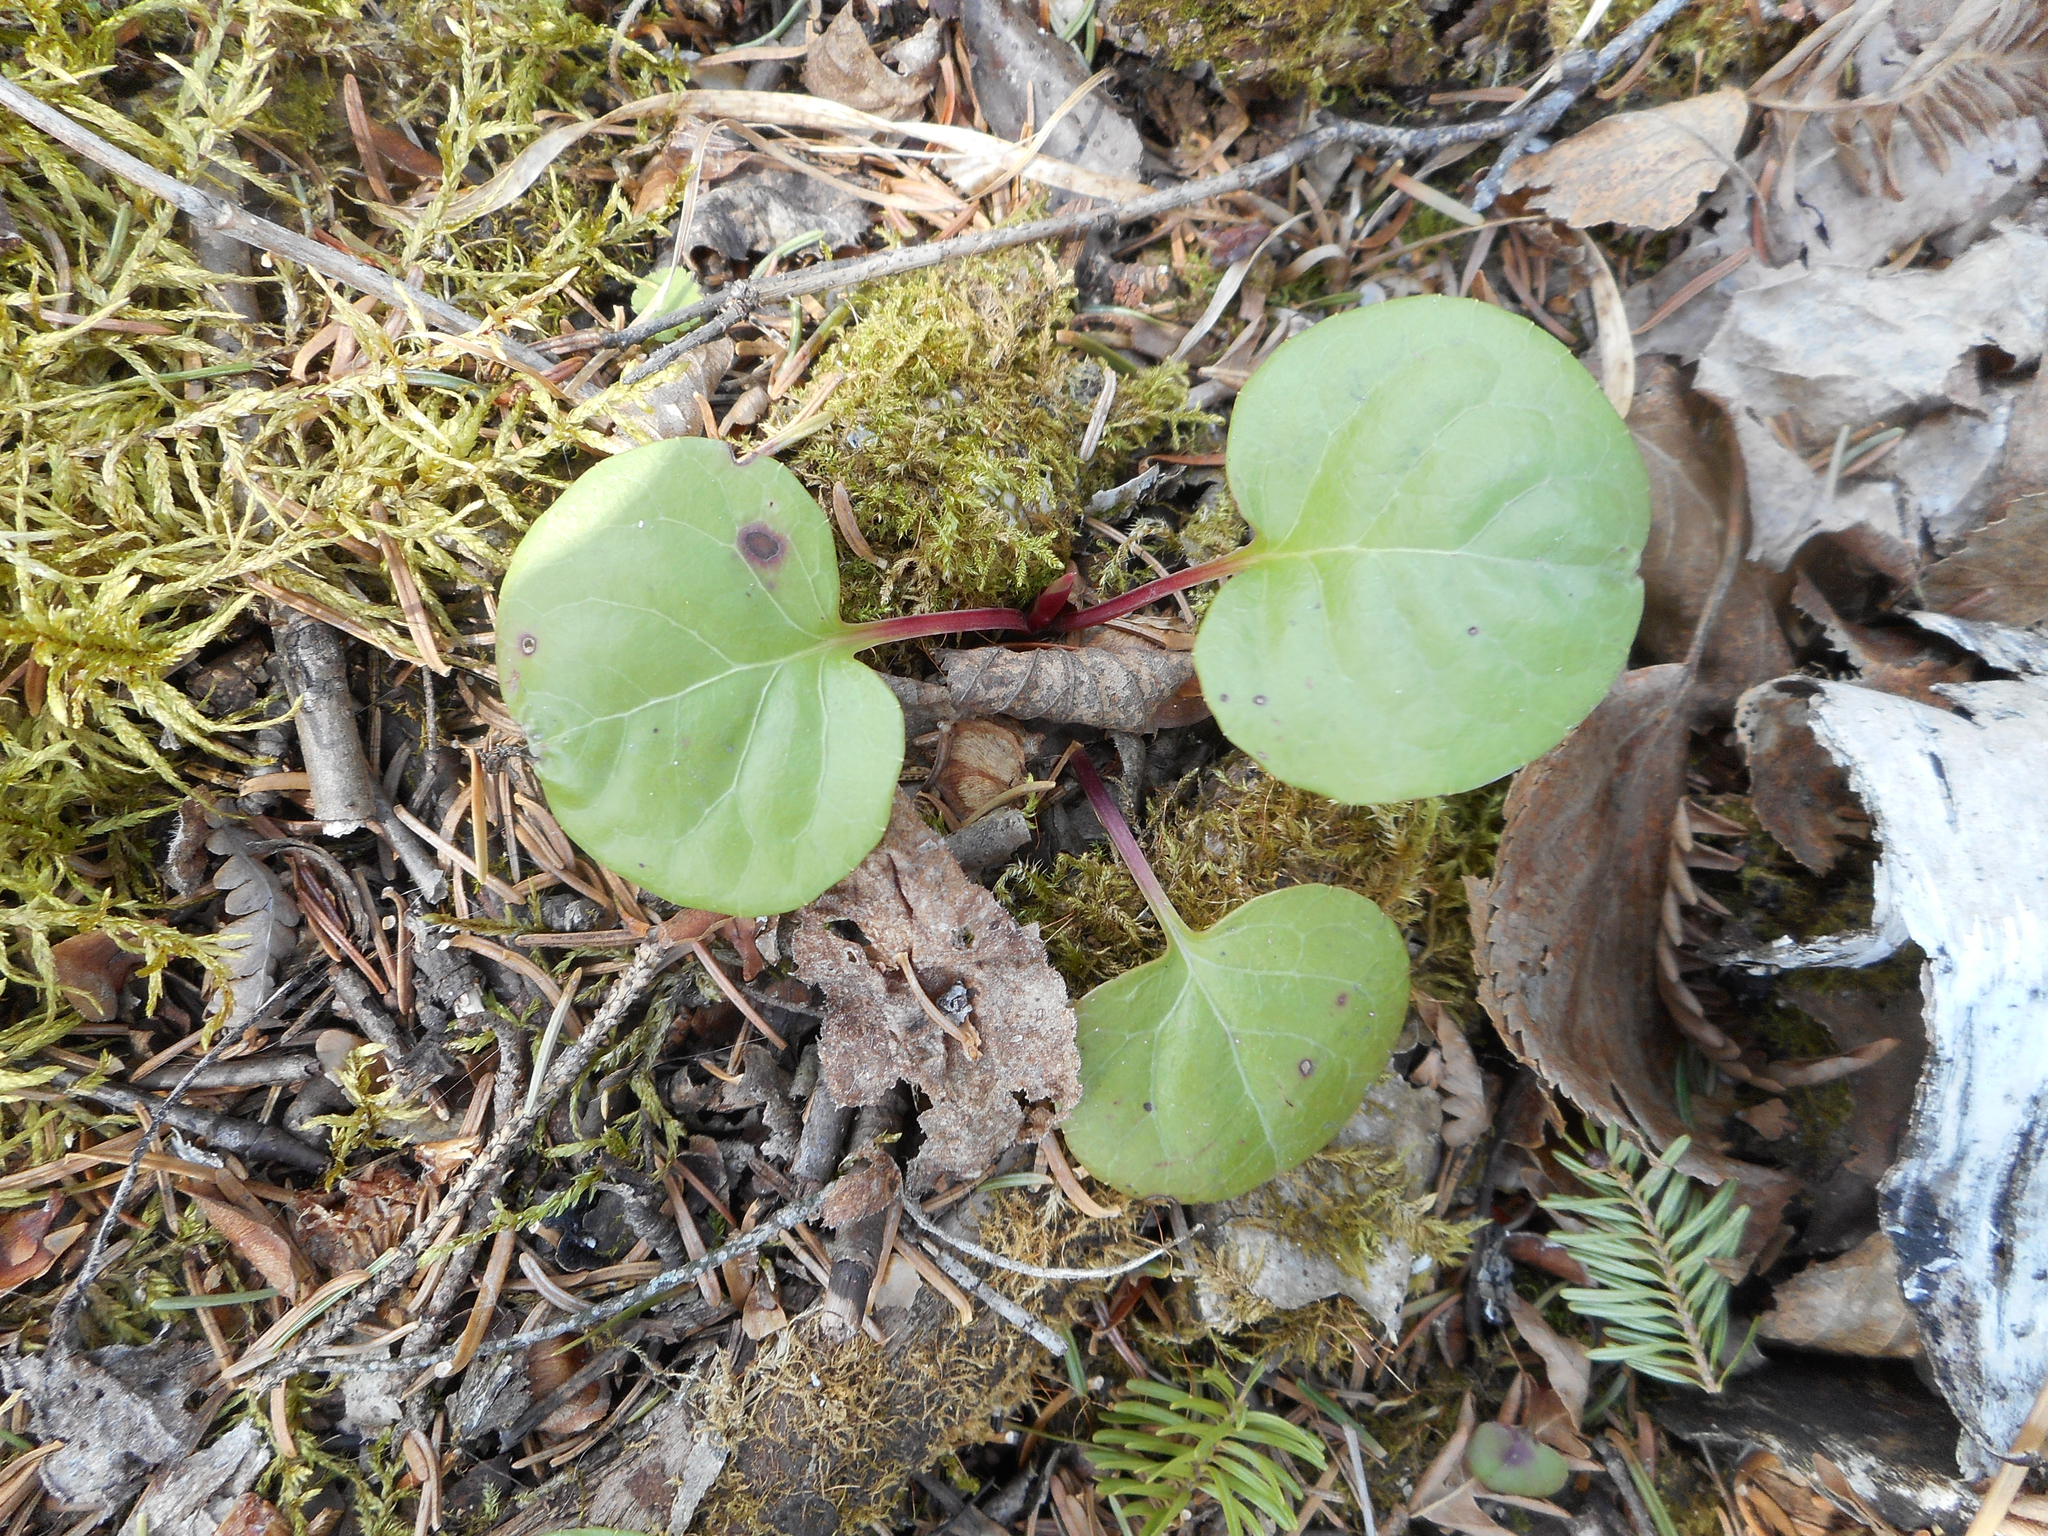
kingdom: Plantae
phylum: Tracheophyta
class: Magnoliopsida
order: Ericales
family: Ericaceae
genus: Pyrola
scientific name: Pyrola americana
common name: American wintergreen
